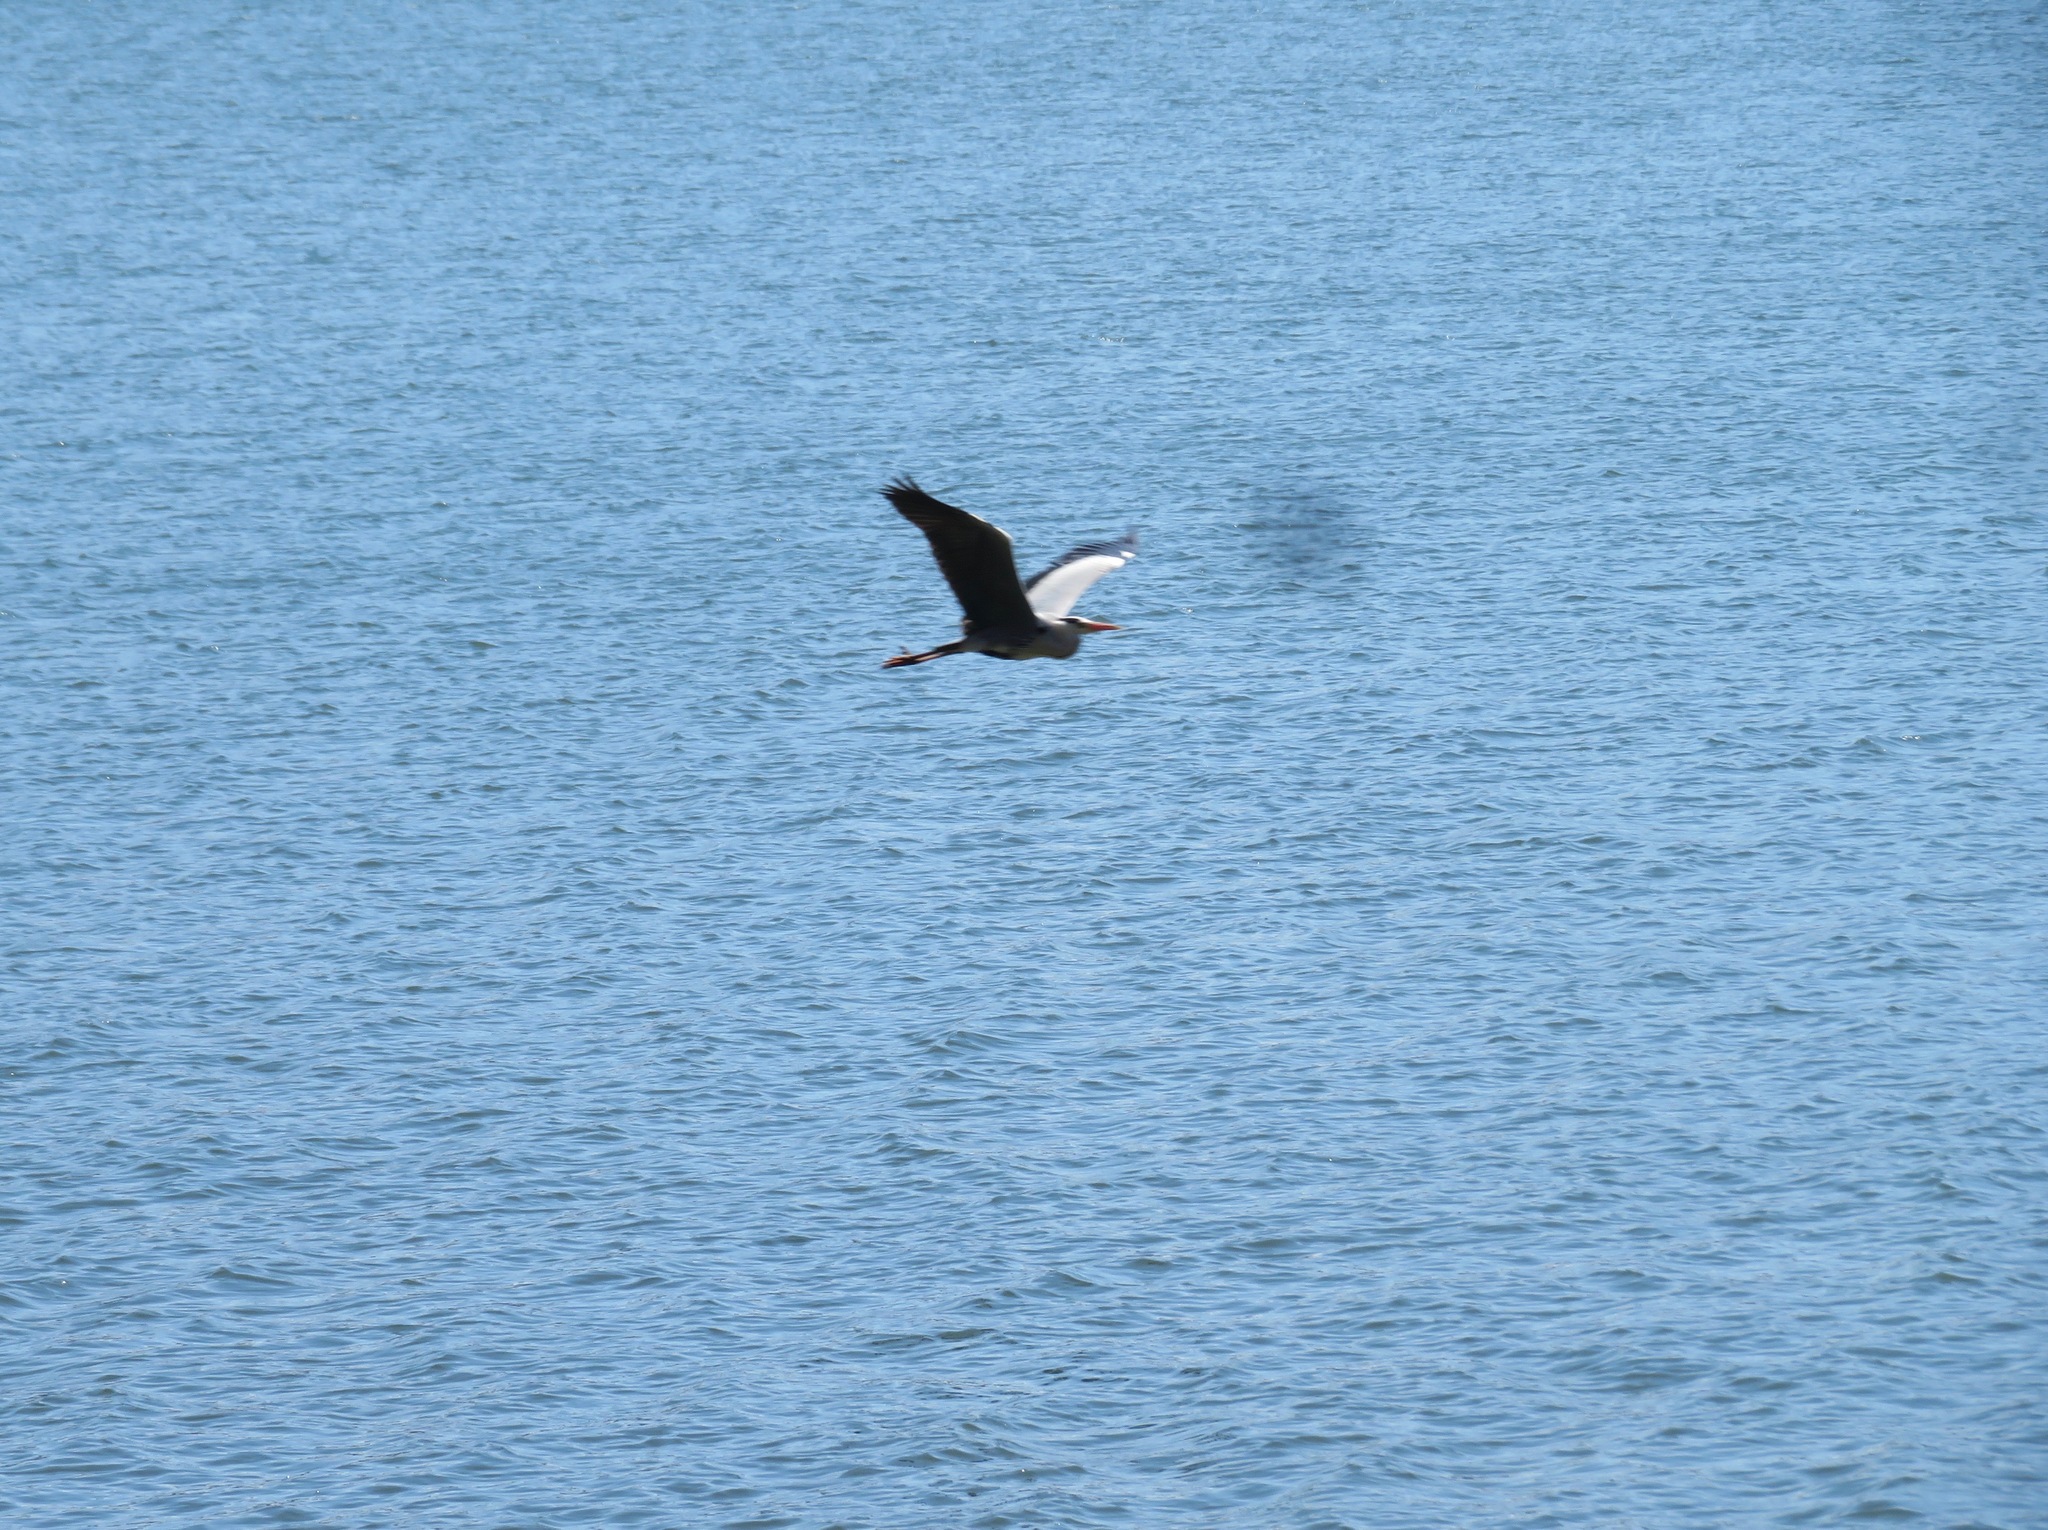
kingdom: Animalia
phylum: Chordata
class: Aves
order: Pelecaniformes
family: Ardeidae
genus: Ardea
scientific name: Ardea cinerea
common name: Grey heron
